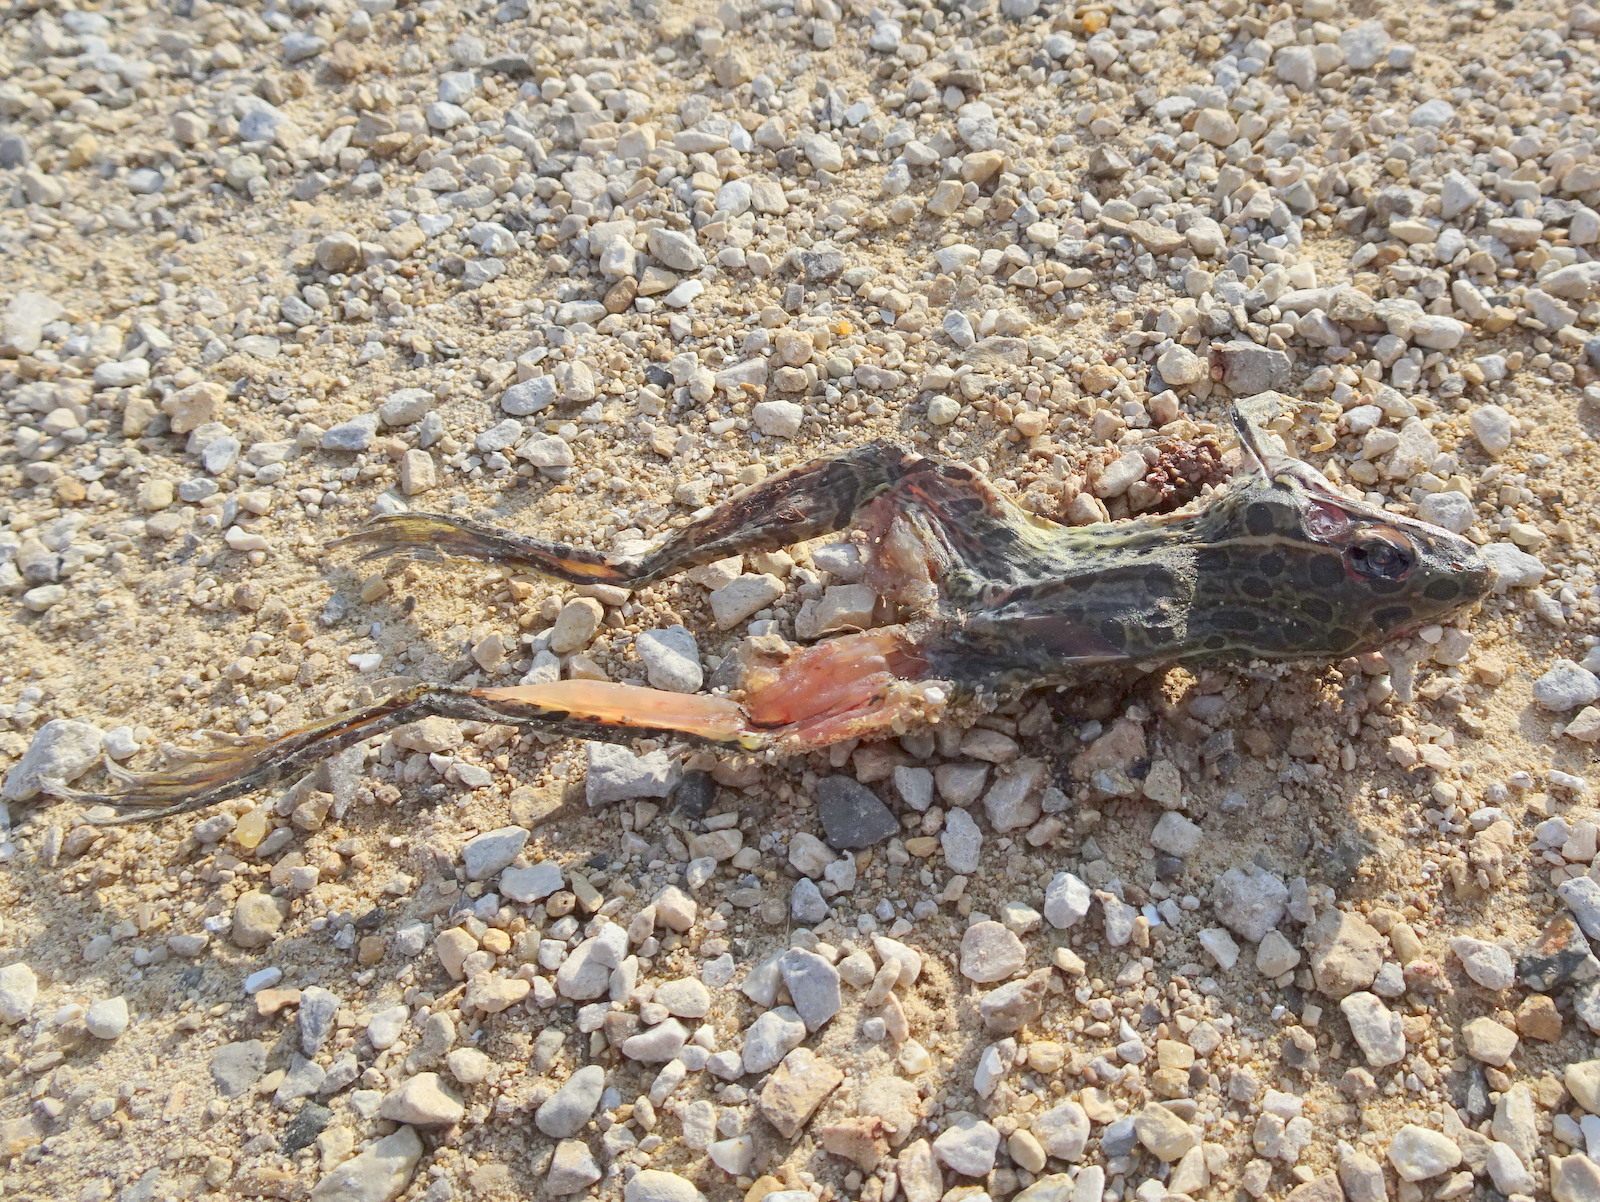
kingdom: Animalia
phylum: Chordata
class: Amphibia
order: Anura
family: Ranidae
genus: Lithobates
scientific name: Lithobates blairi
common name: Plains leopard frog
